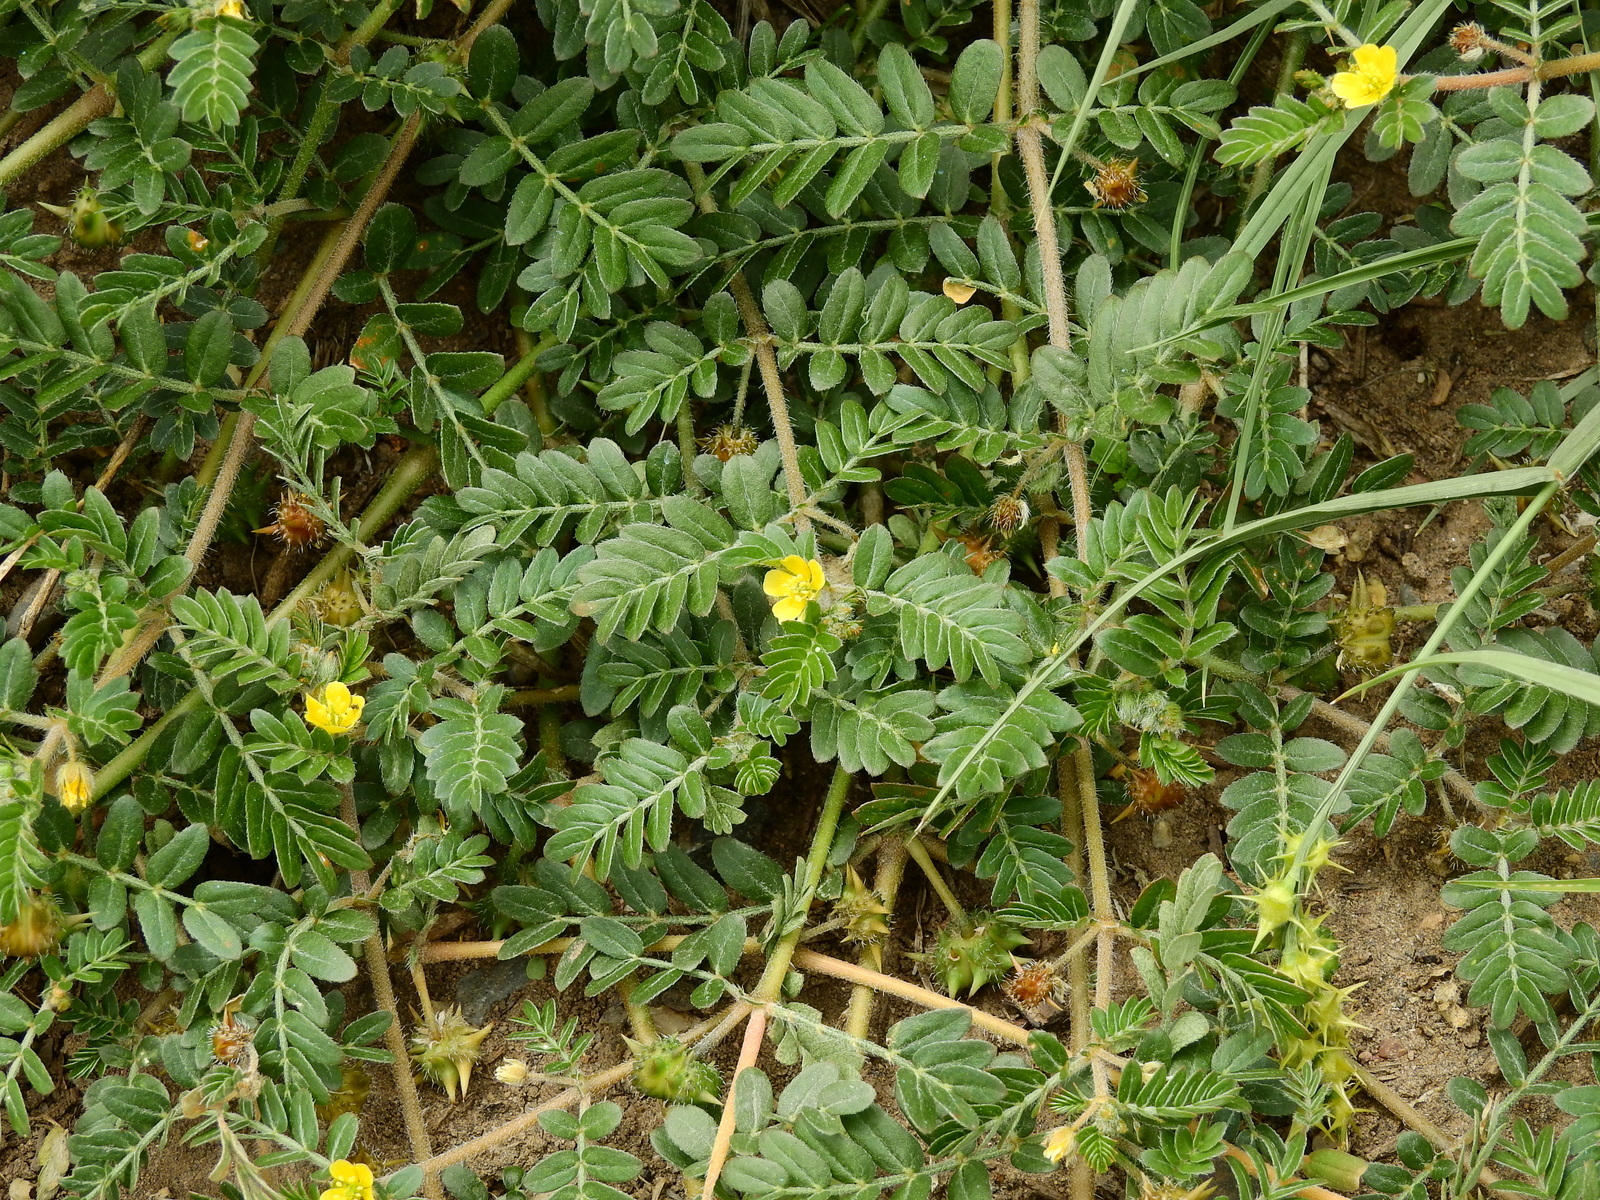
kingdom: Plantae
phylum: Tracheophyta
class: Magnoliopsida
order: Zygophyllales
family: Zygophyllaceae
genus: Tribulus
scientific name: Tribulus terrestris
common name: Puncturevine
